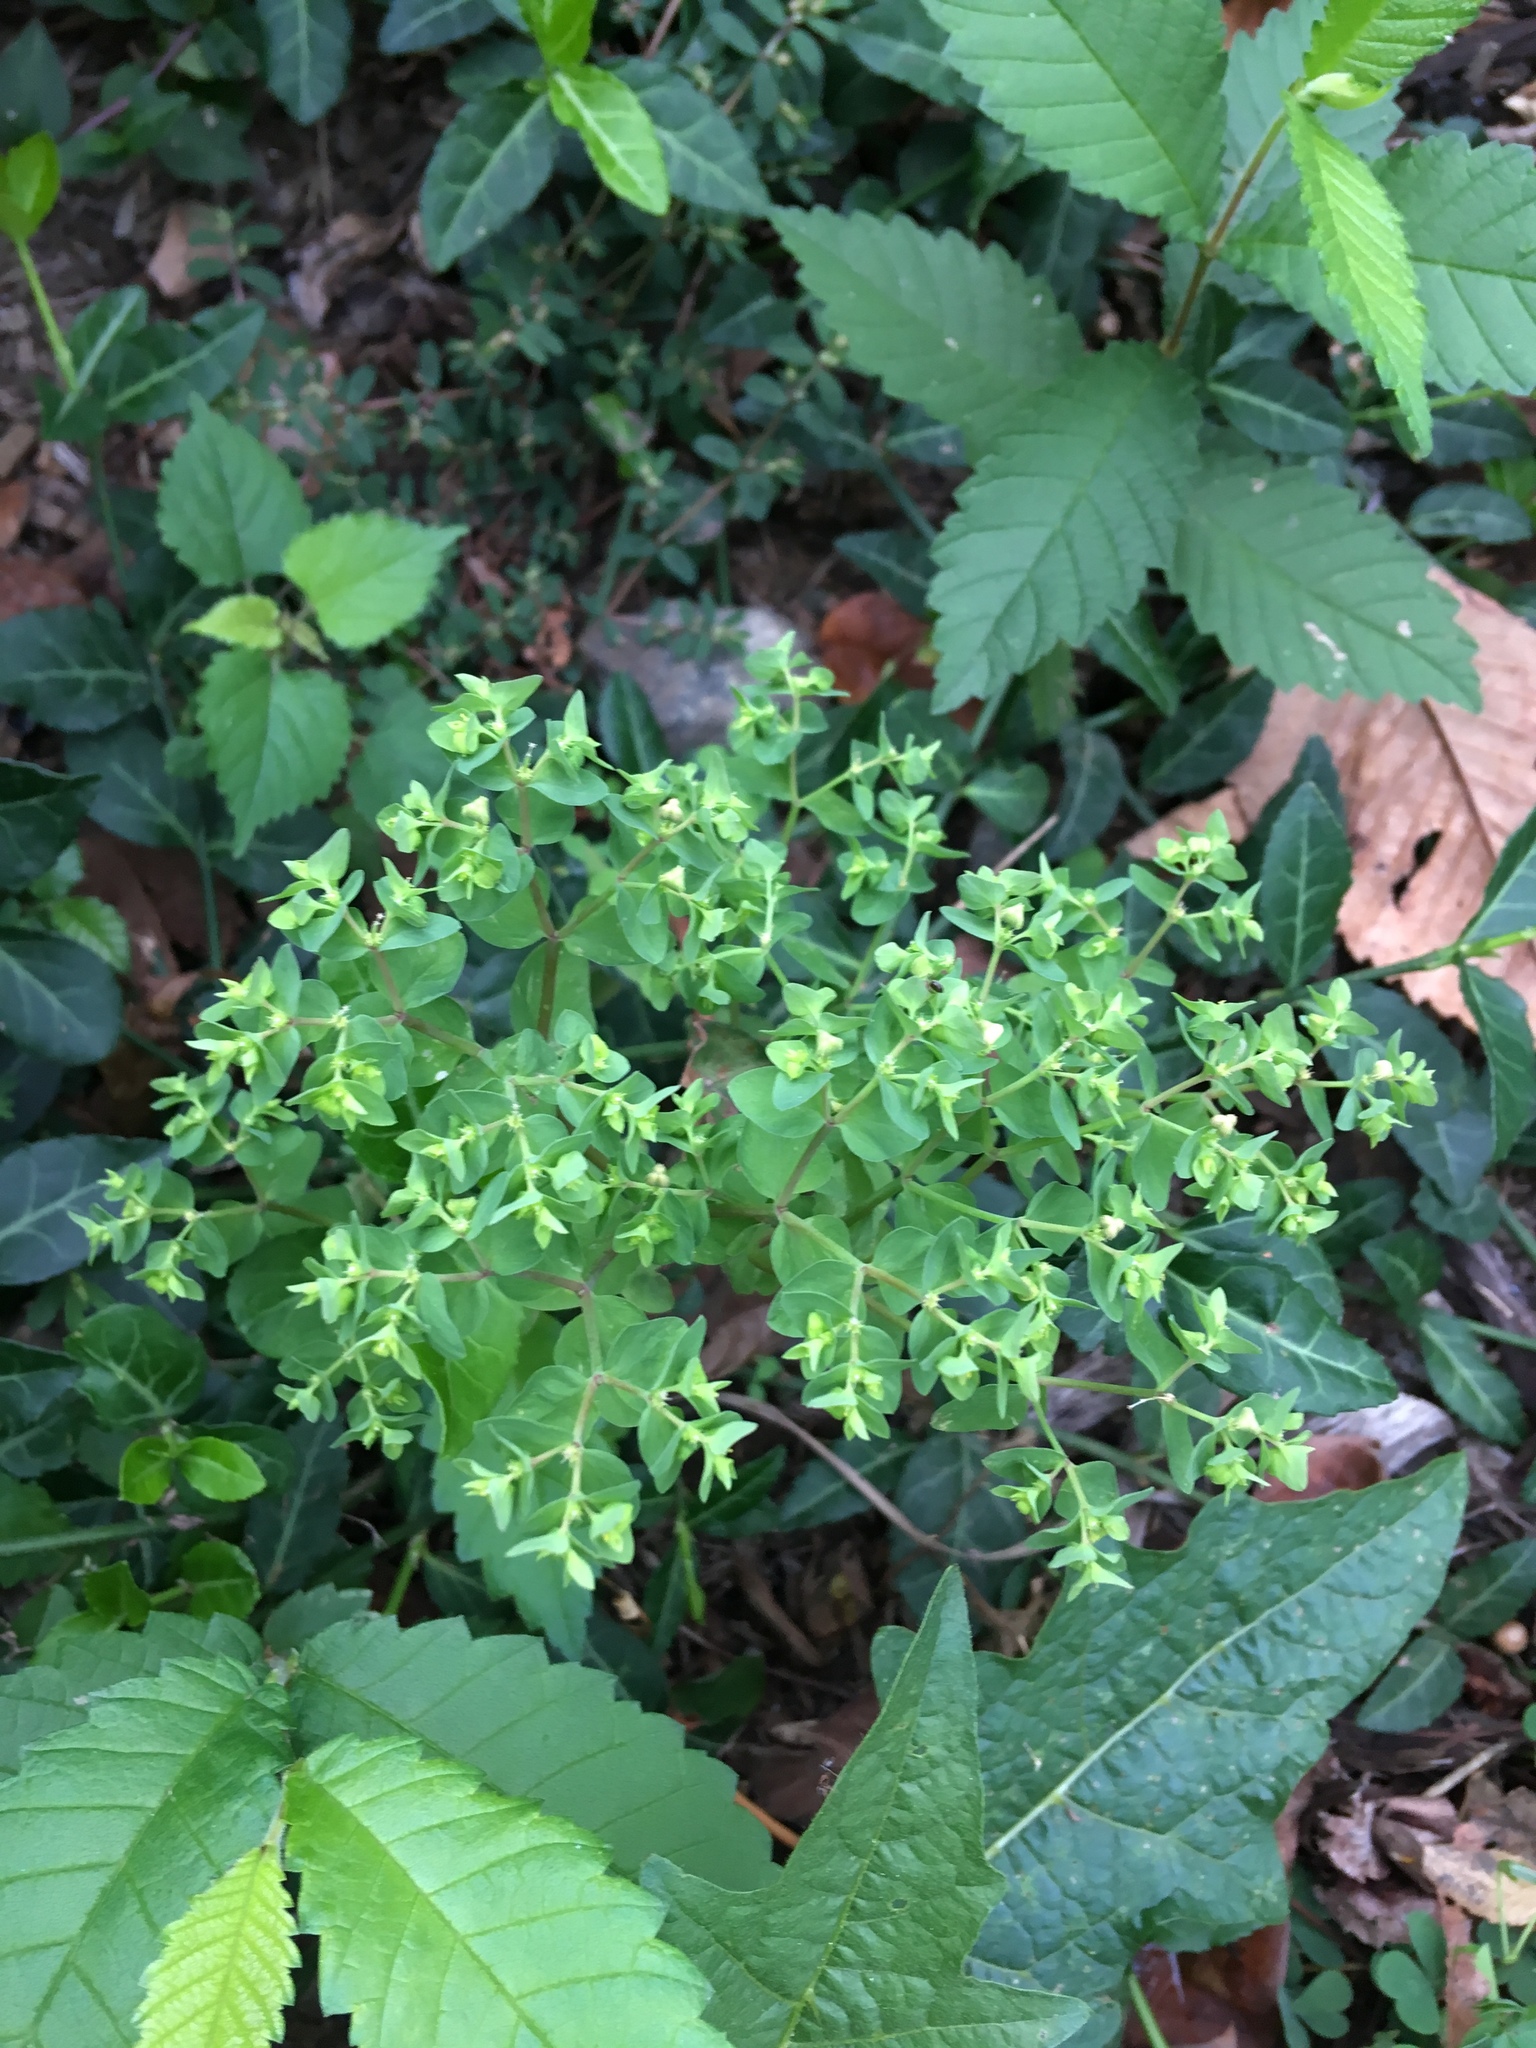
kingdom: Plantae
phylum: Tracheophyta
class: Magnoliopsida
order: Malpighiales
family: Euphorbiaceae
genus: Euphorbia
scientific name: Euphorbia peplus
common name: Petty spurge
